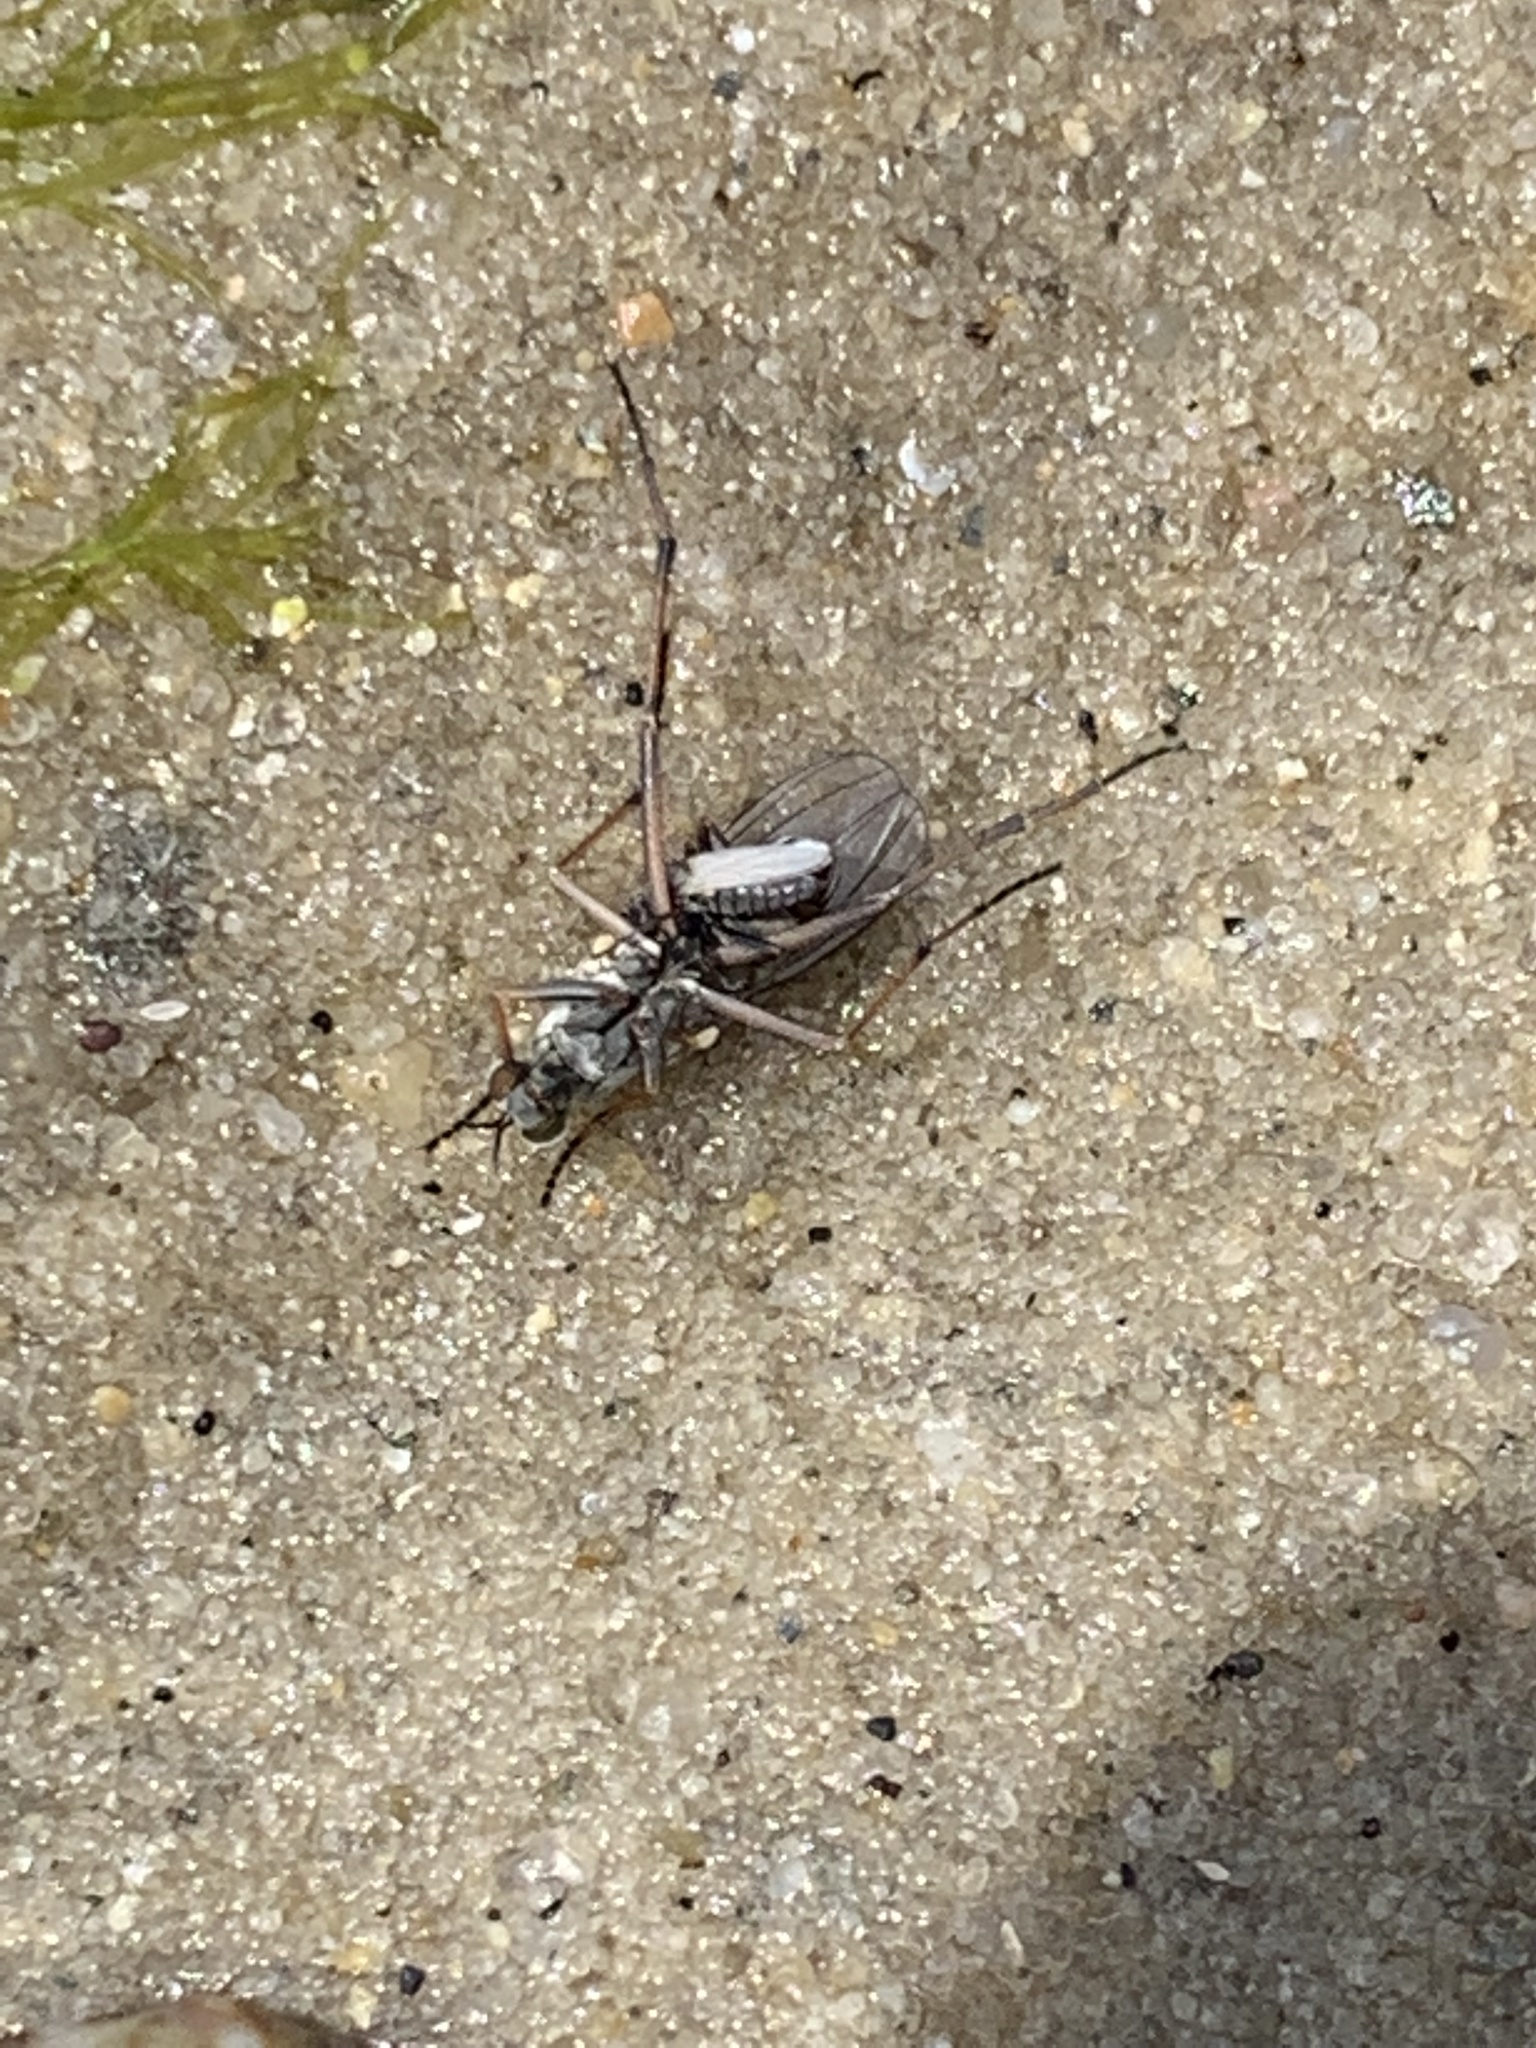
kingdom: Animalia
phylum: Arthropoda
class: Insecta
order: Diptera
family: Dolichopodidae
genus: Hypocharassus
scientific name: Hypocharassus pruinosus
